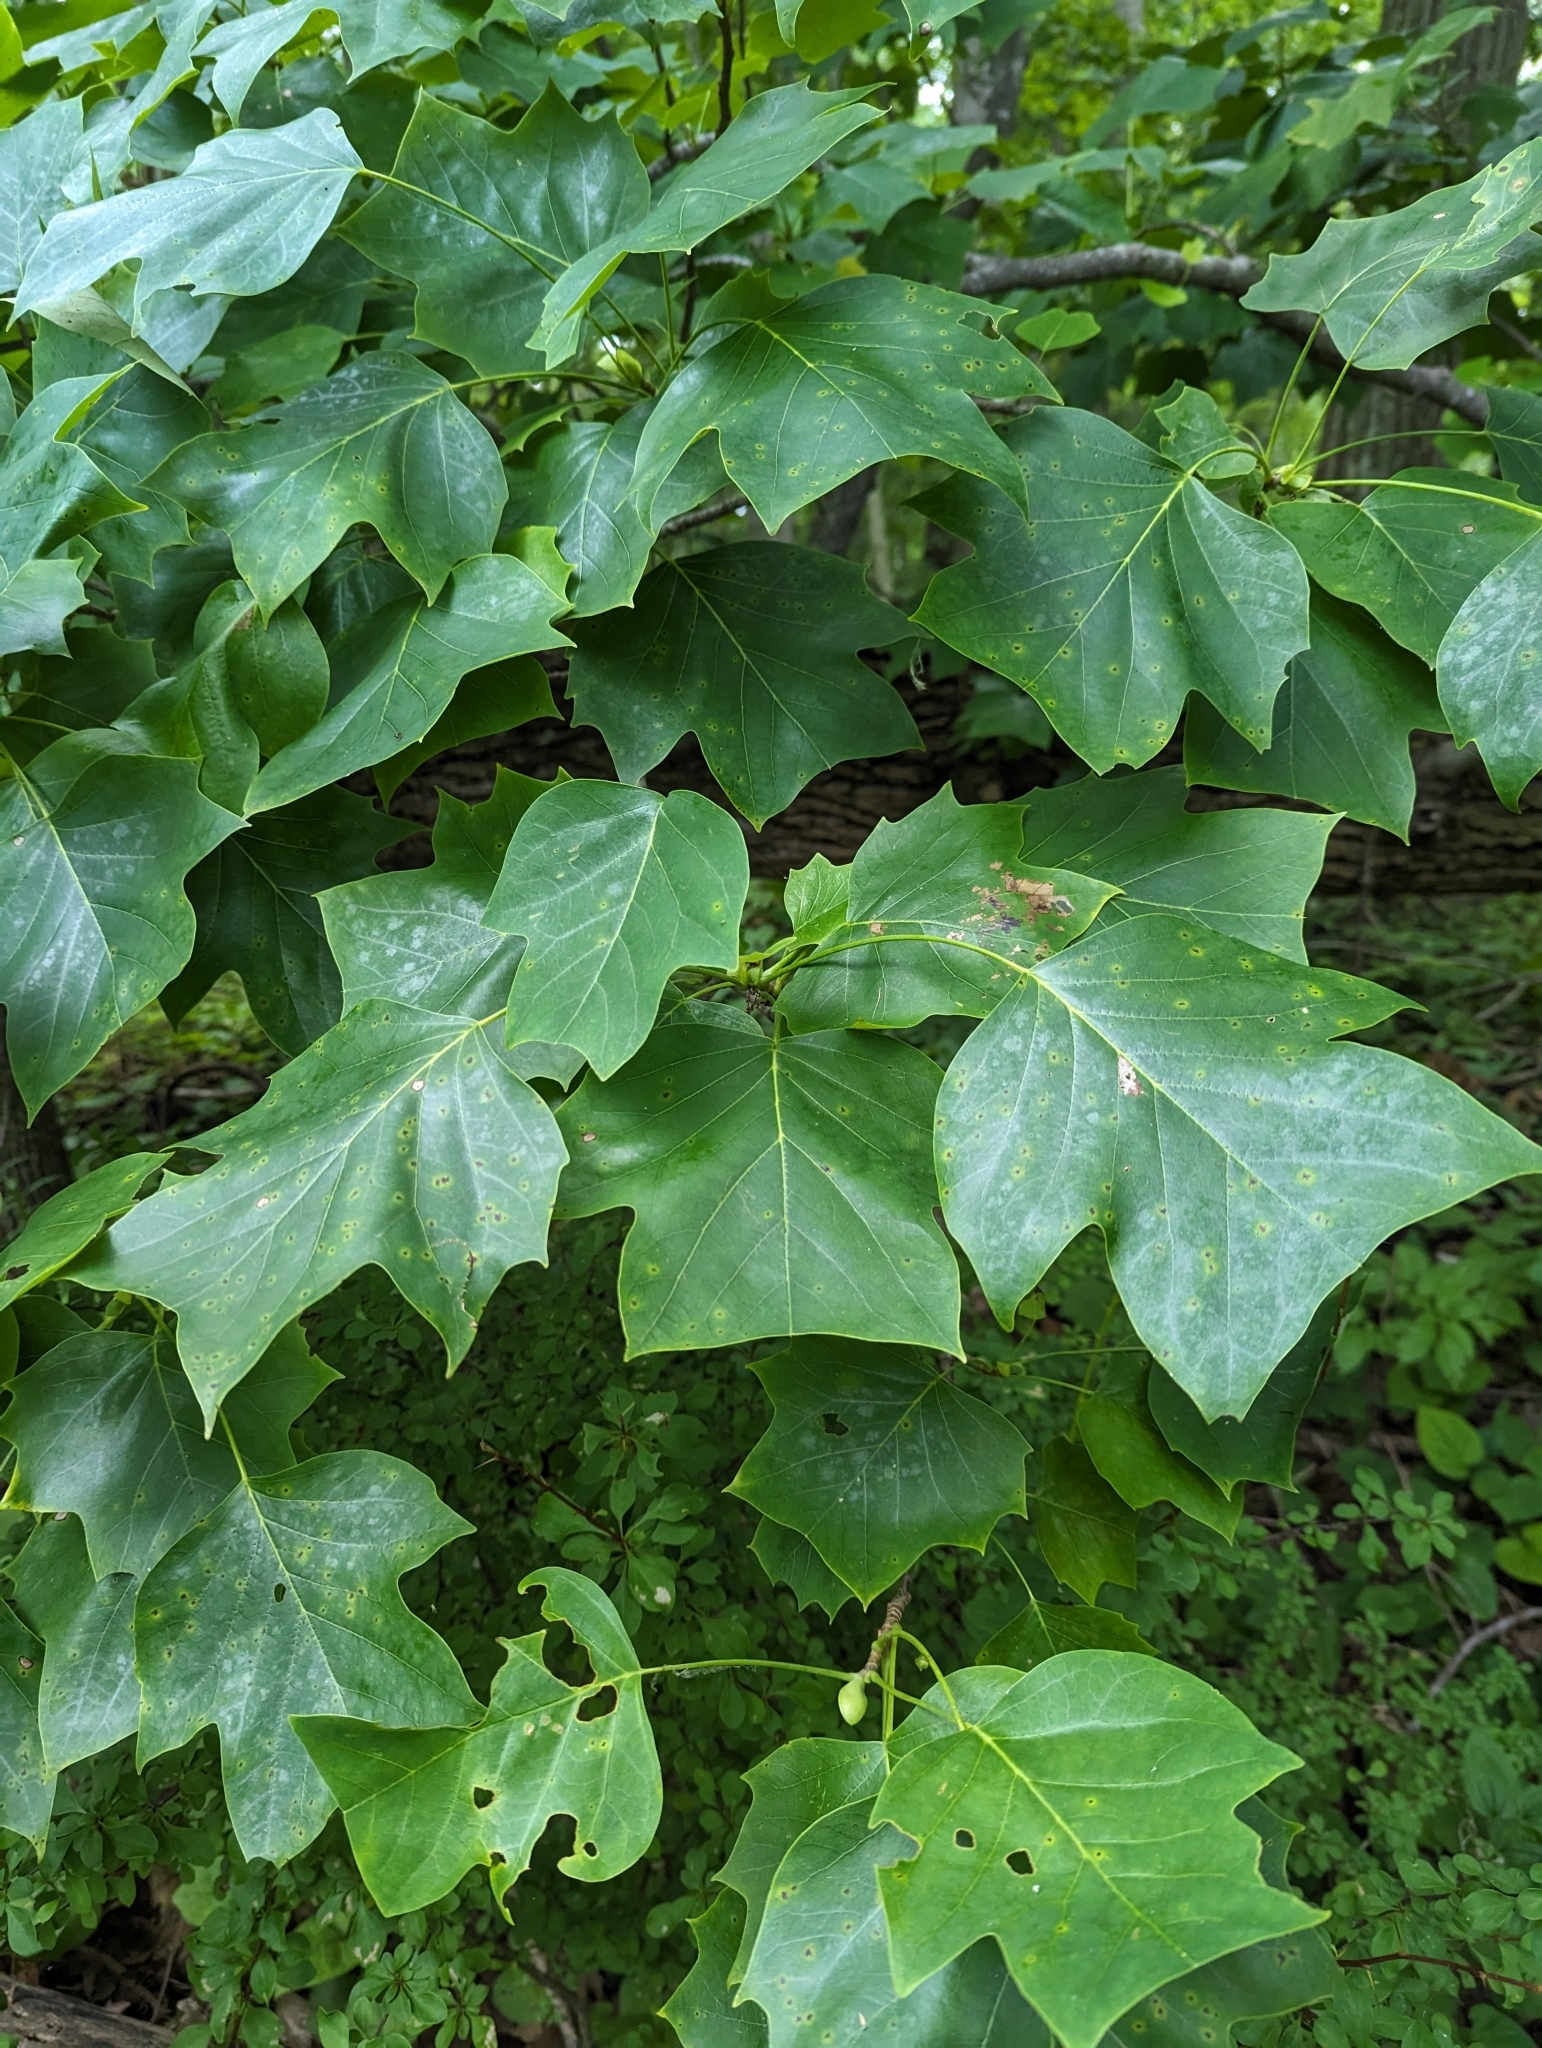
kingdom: Plantae
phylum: Tracheophyta
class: Magnoliopsida
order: Magnoliales
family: Magnoliaceae
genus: Liriodendron
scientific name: Liriodendron tulipifera
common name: Tulip tree
